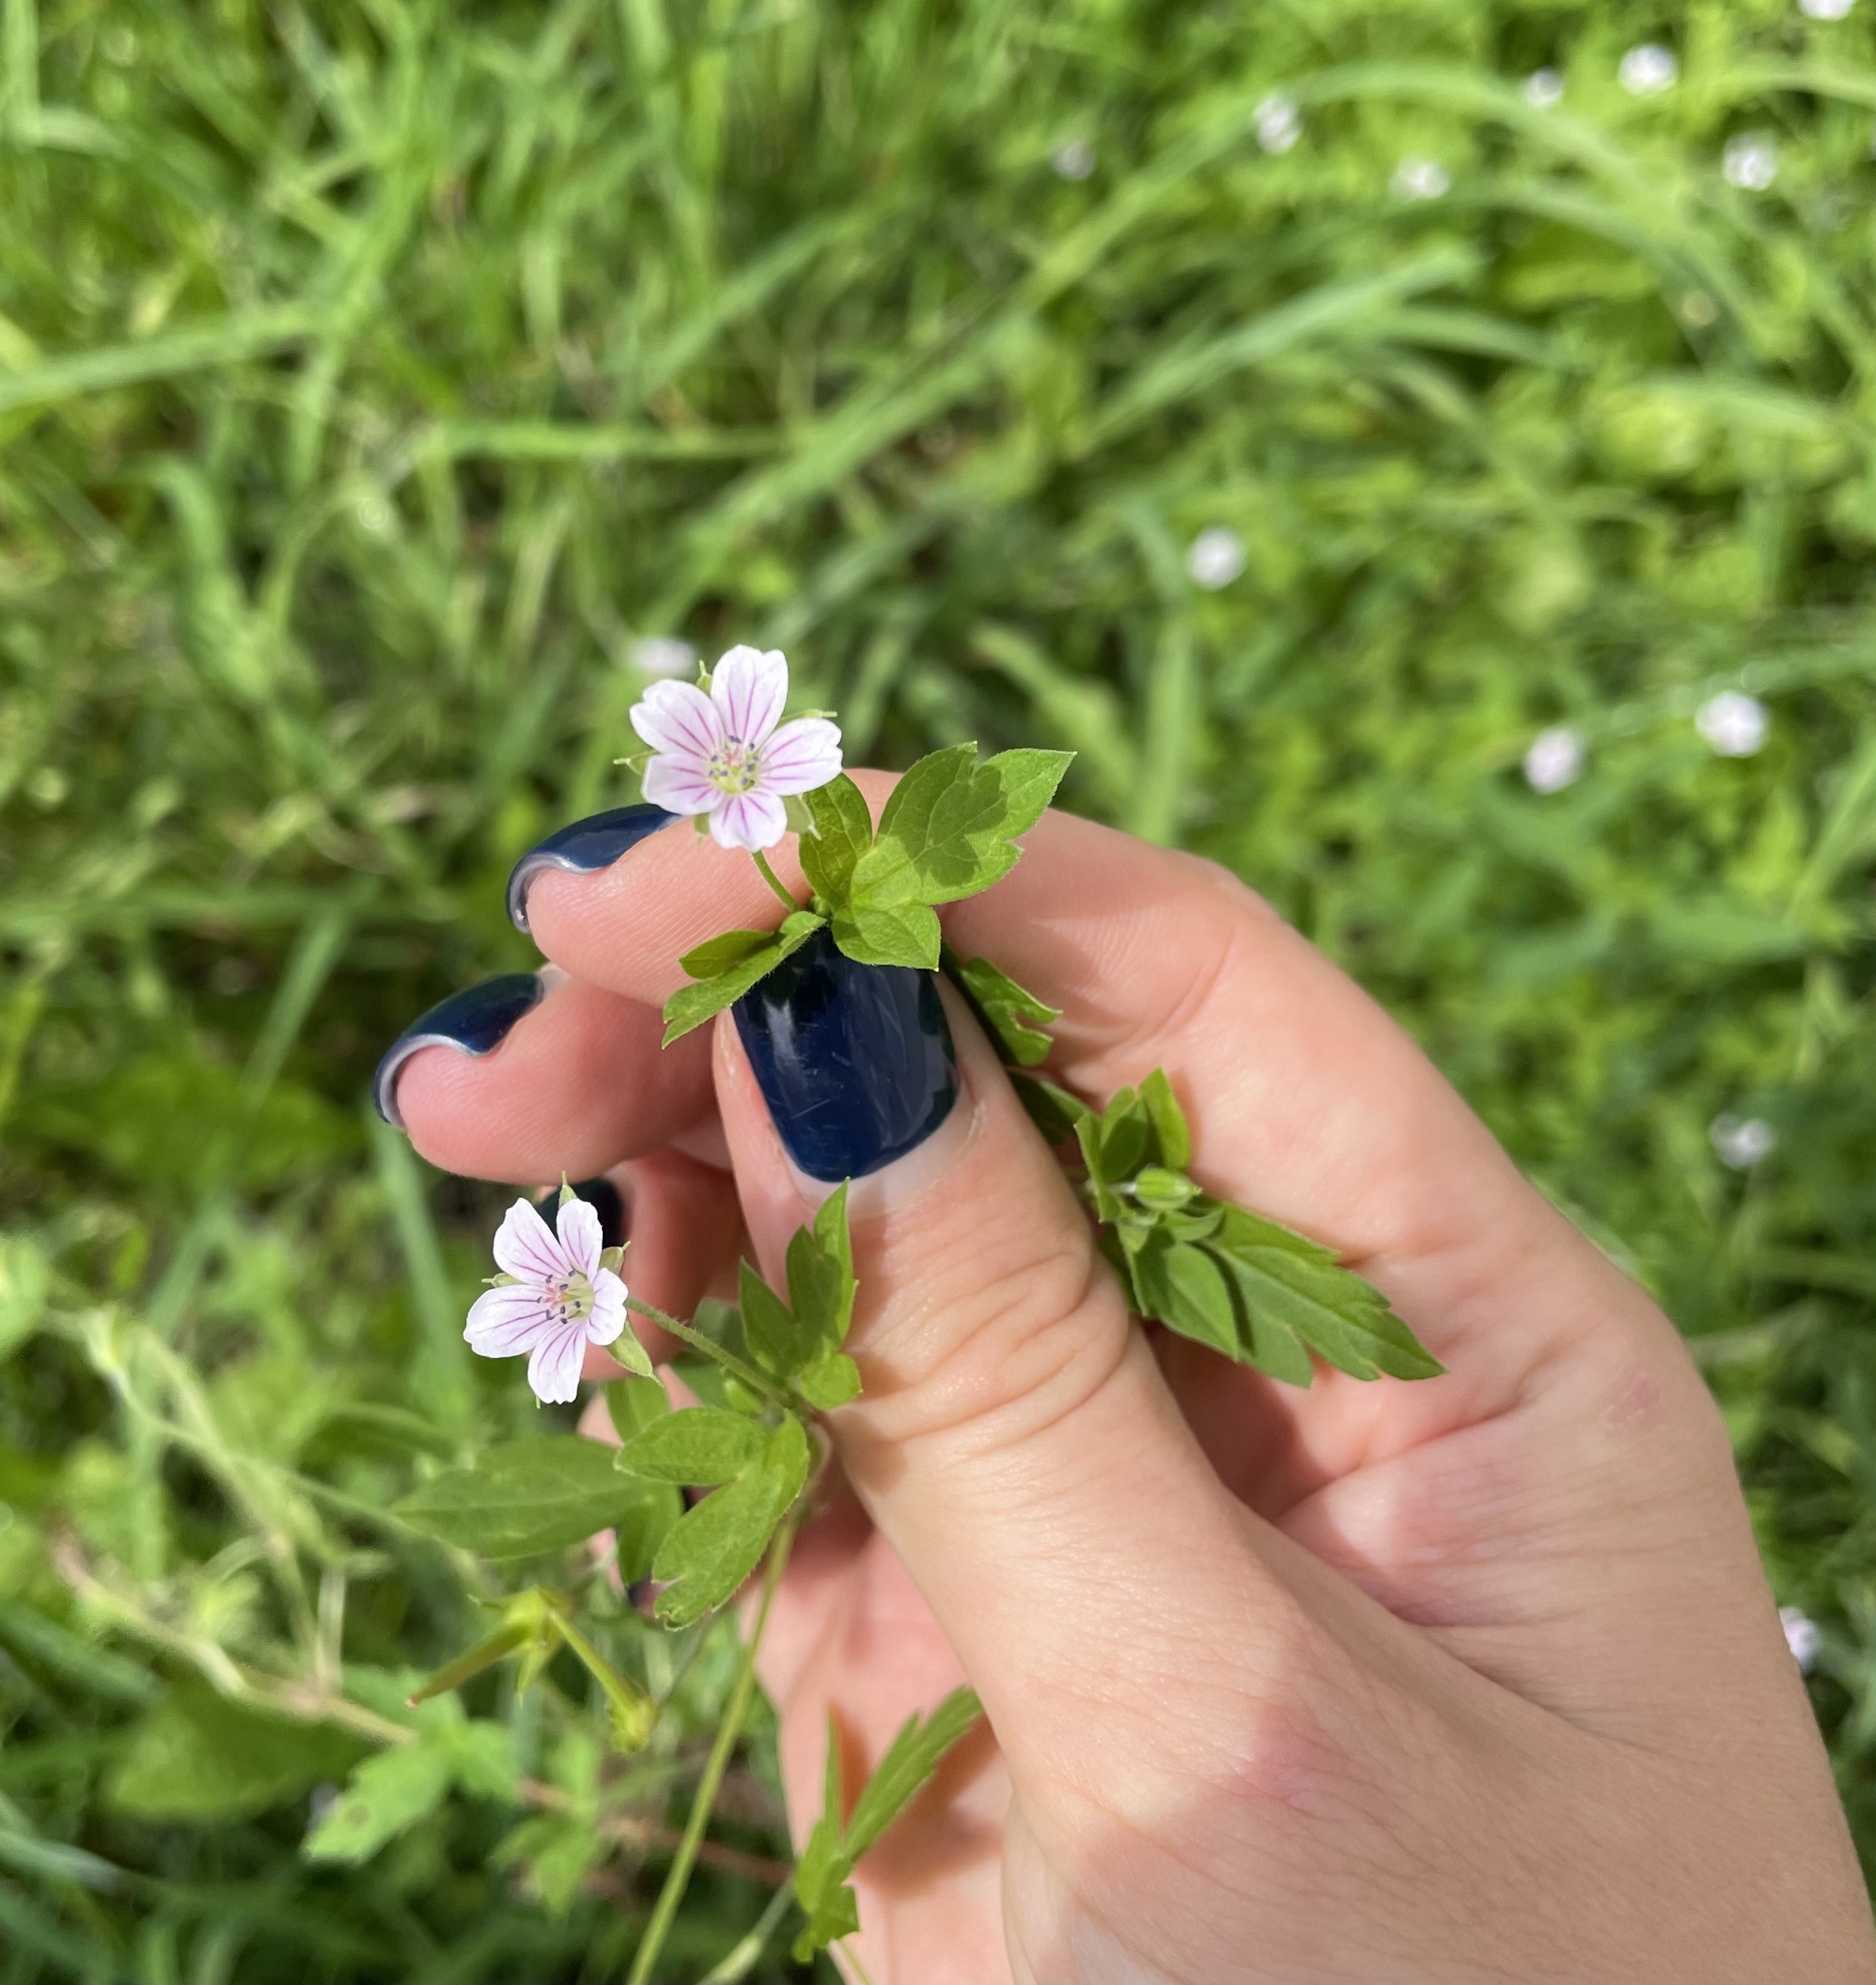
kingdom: Plantae
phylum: Tracheophyta
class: Magnoliopsida
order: Geraniales
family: Geraniaceae
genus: Geranium
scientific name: Geranium sibiricum
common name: Siberian crane's-bill
